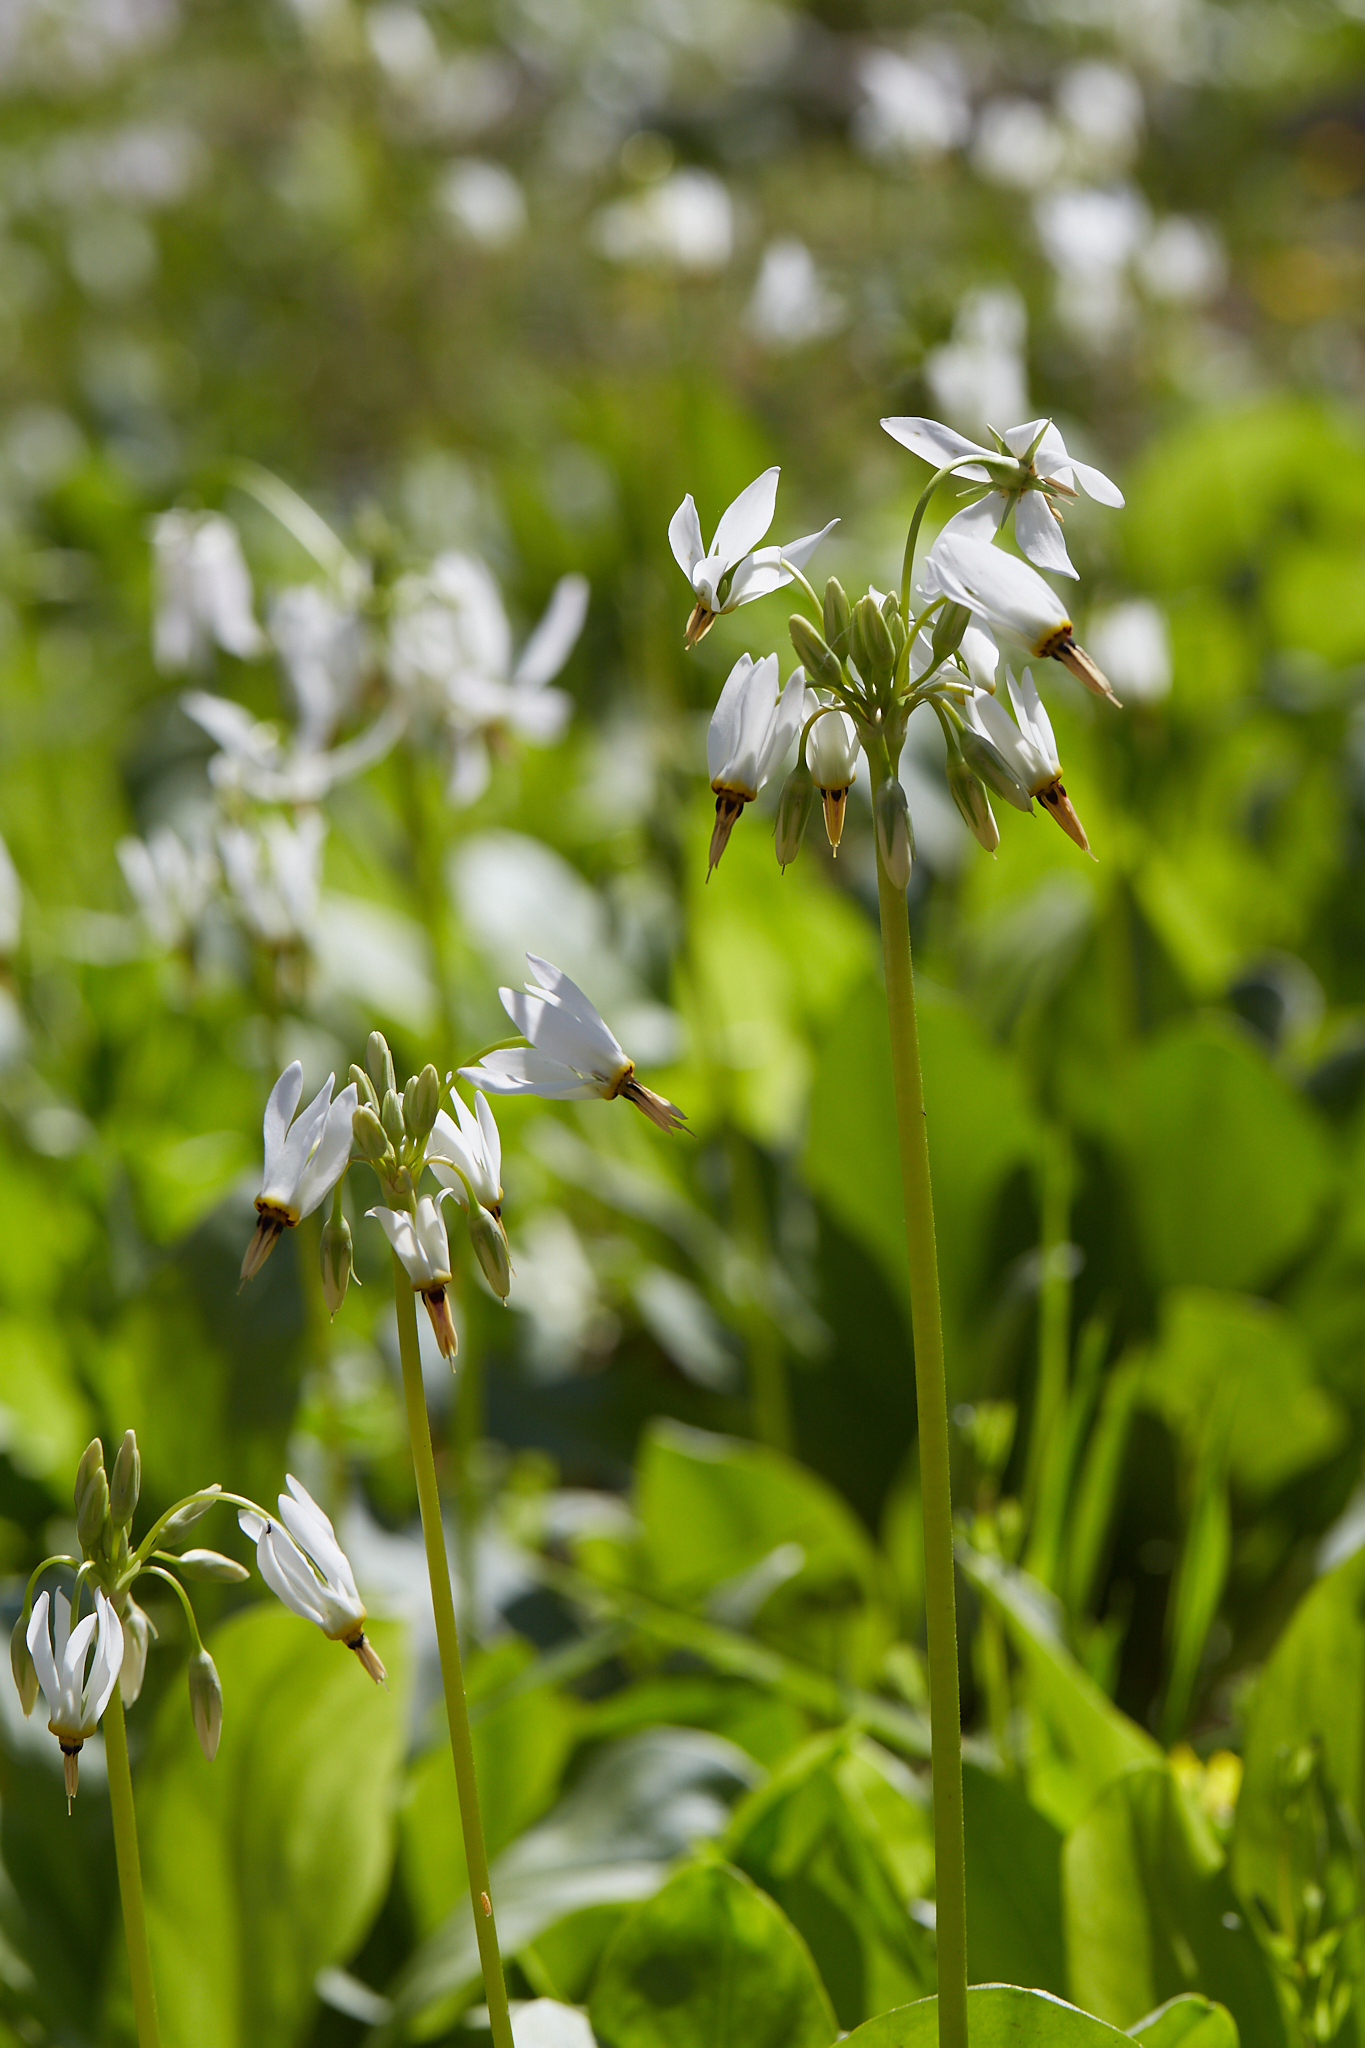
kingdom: Plantae
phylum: Tracheophyta
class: Magnoliopsida
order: Ericales
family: Primulaceae
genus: Dodecatheon
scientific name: Dodecatheon meadia
